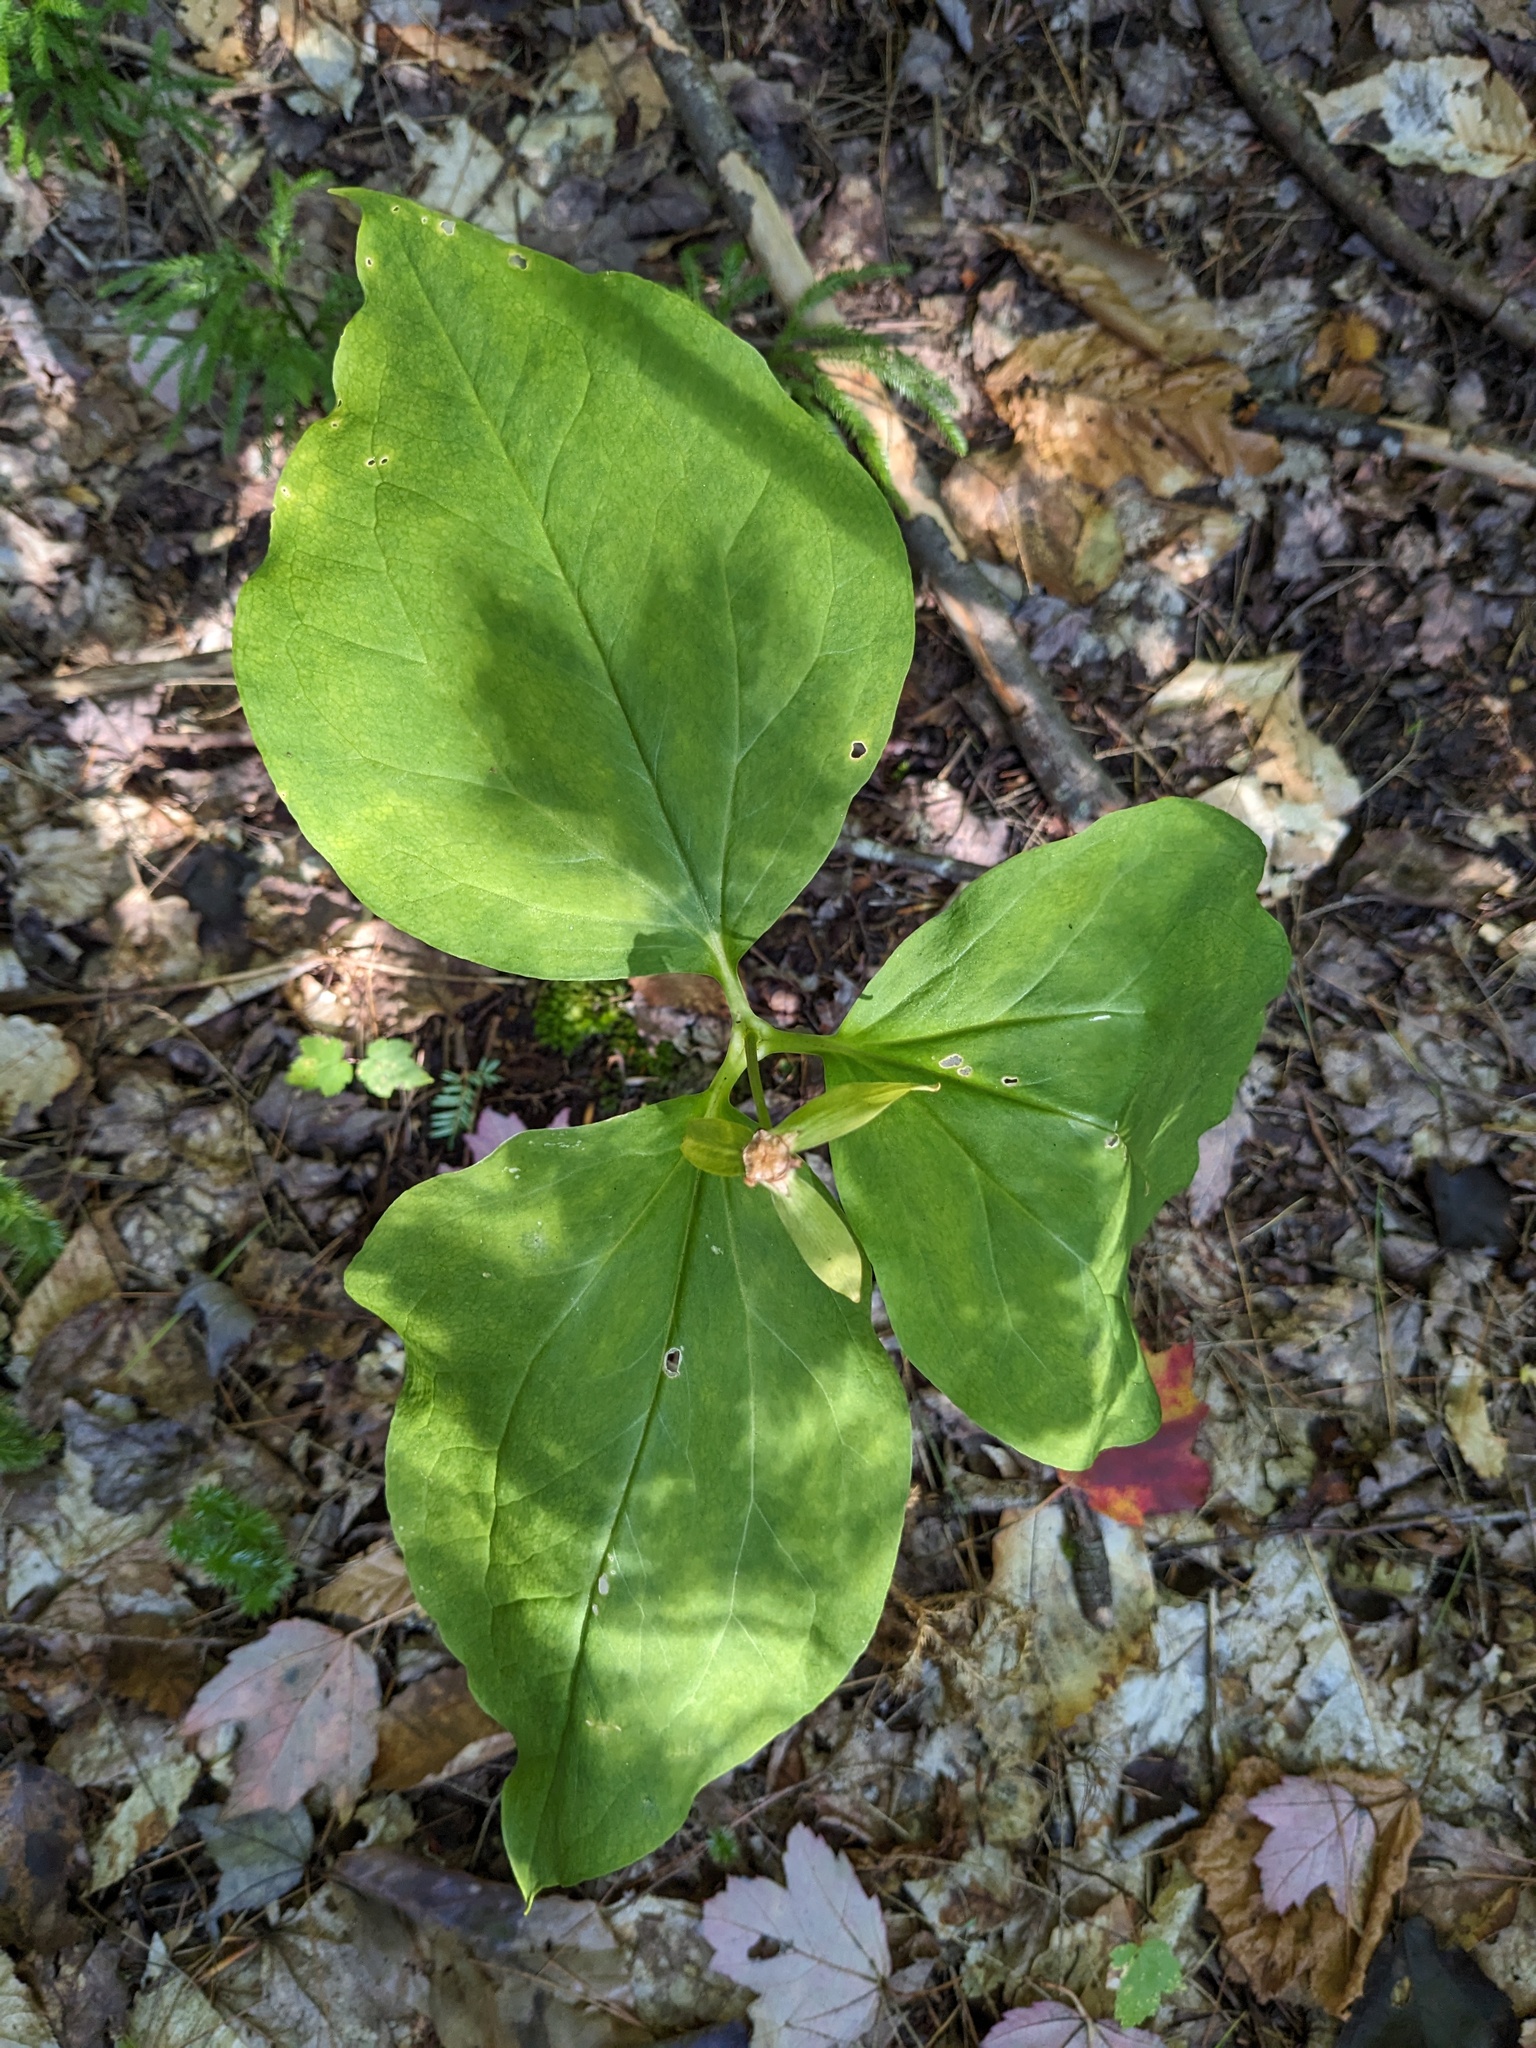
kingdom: Plantae
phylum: Tracheophyta
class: Liliopsida
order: Liliales
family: Melanthiaceae
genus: Trillium
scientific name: Trillium undulatum
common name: Paint trillium
